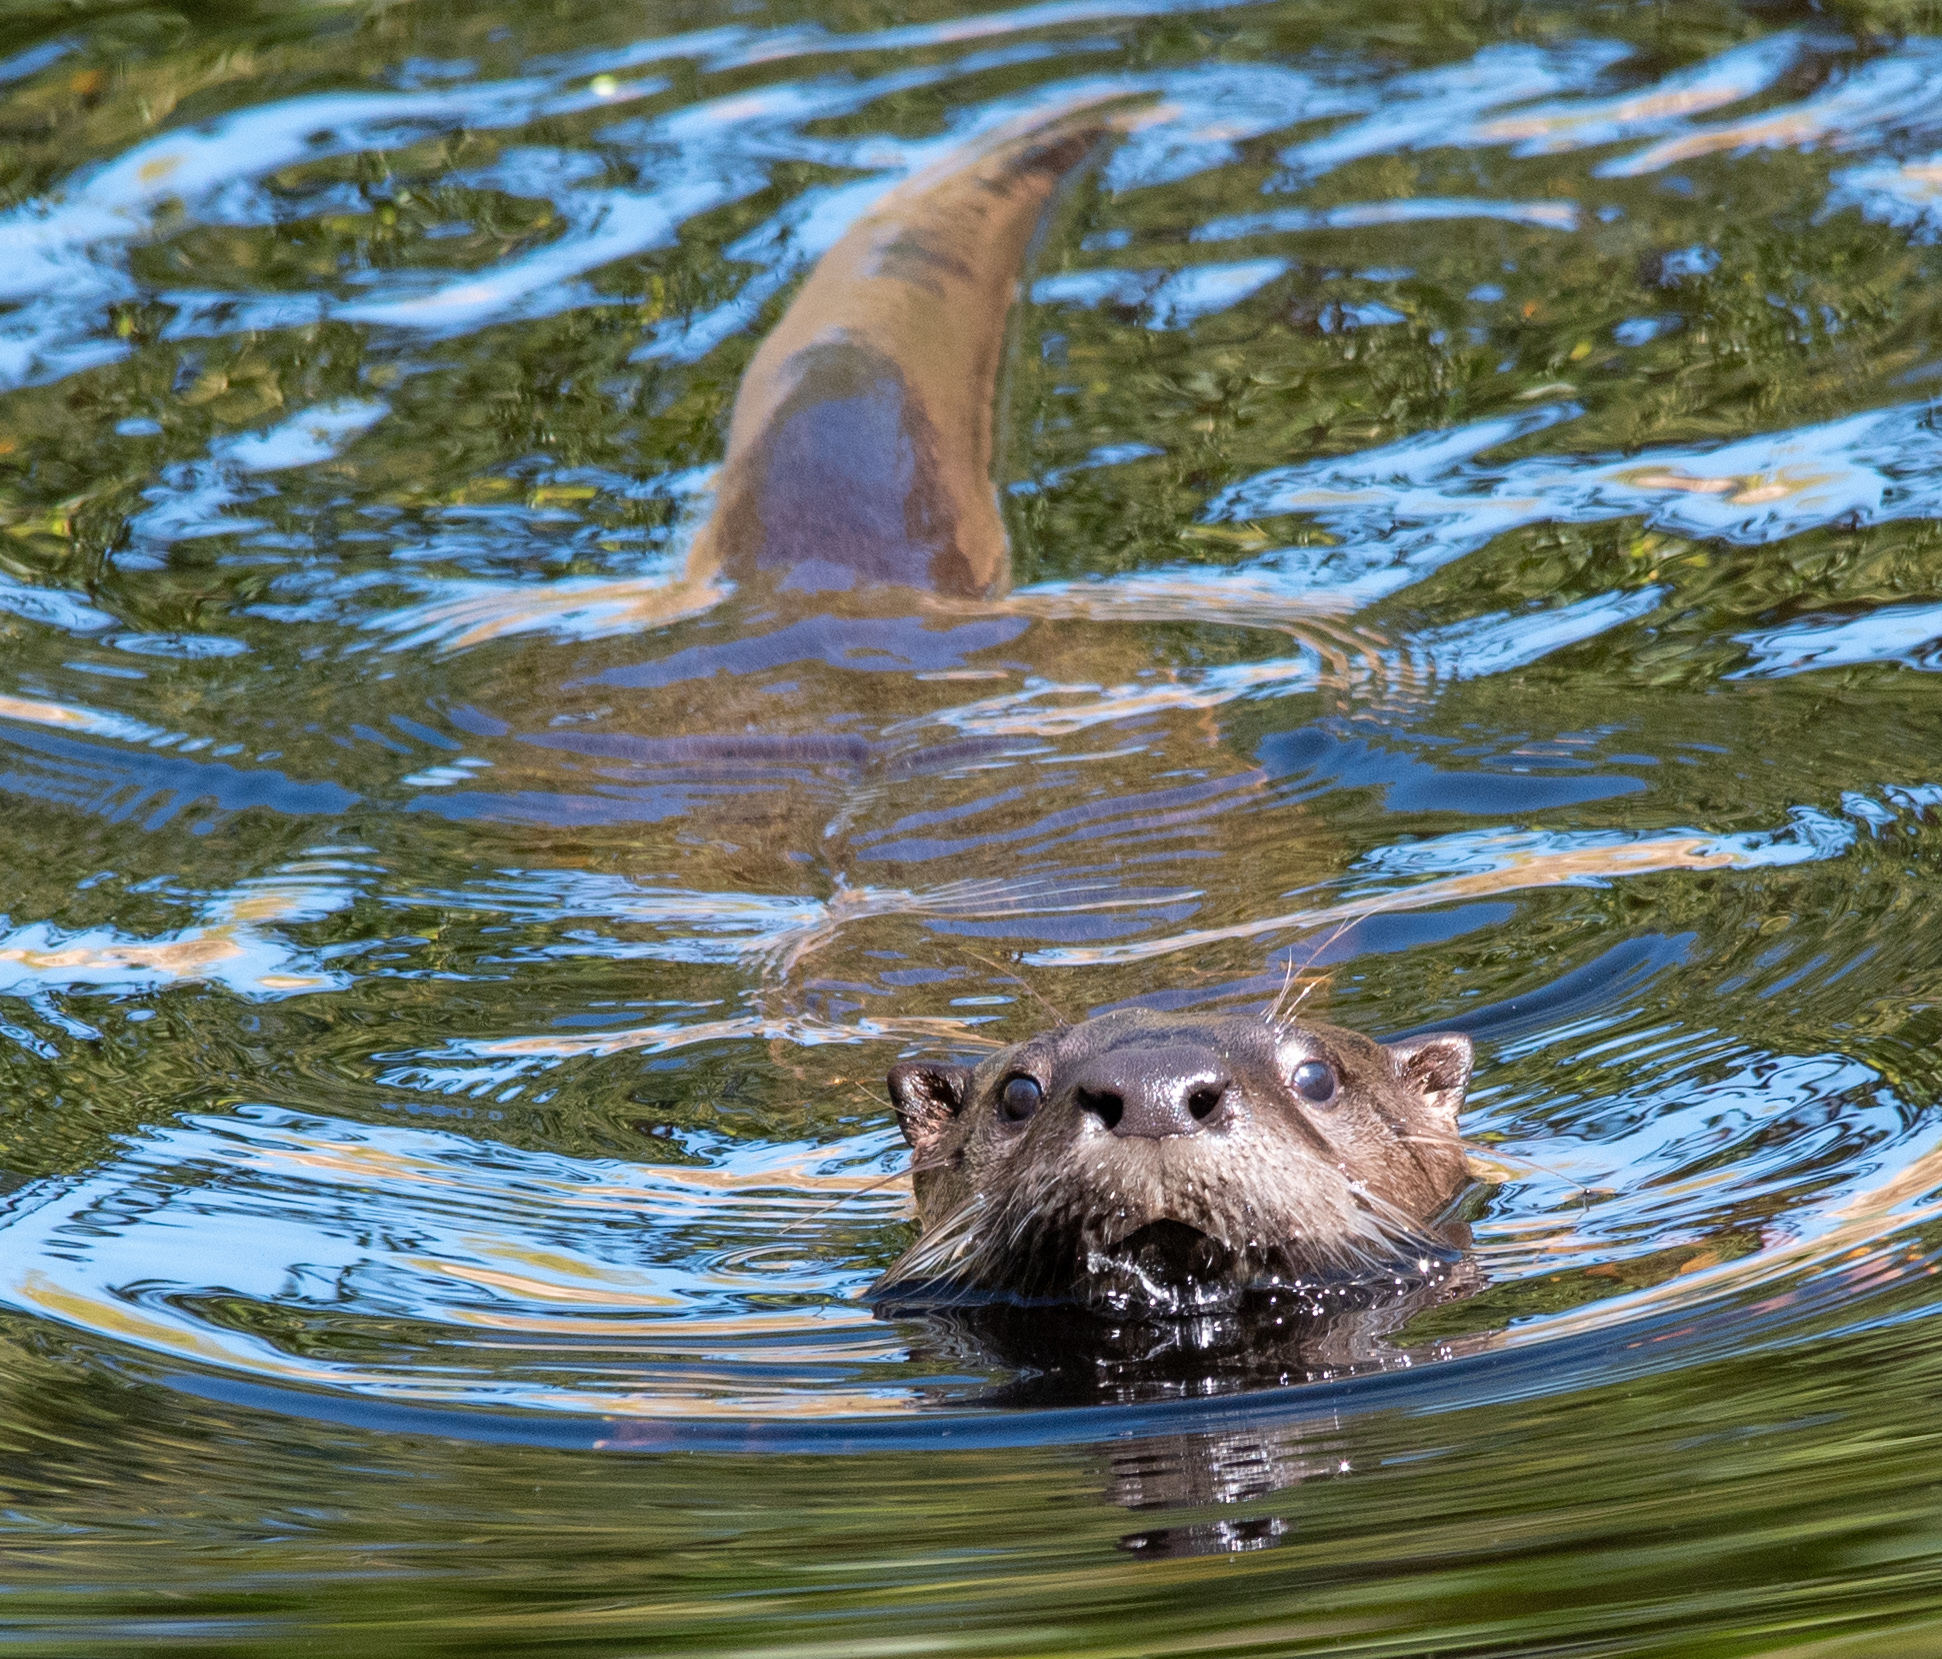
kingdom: Animalia
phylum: Chordata
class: Mammalia
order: Carnivora
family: Mustelidae
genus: Lontra
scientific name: Lontra canadensis
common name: North american river otter
